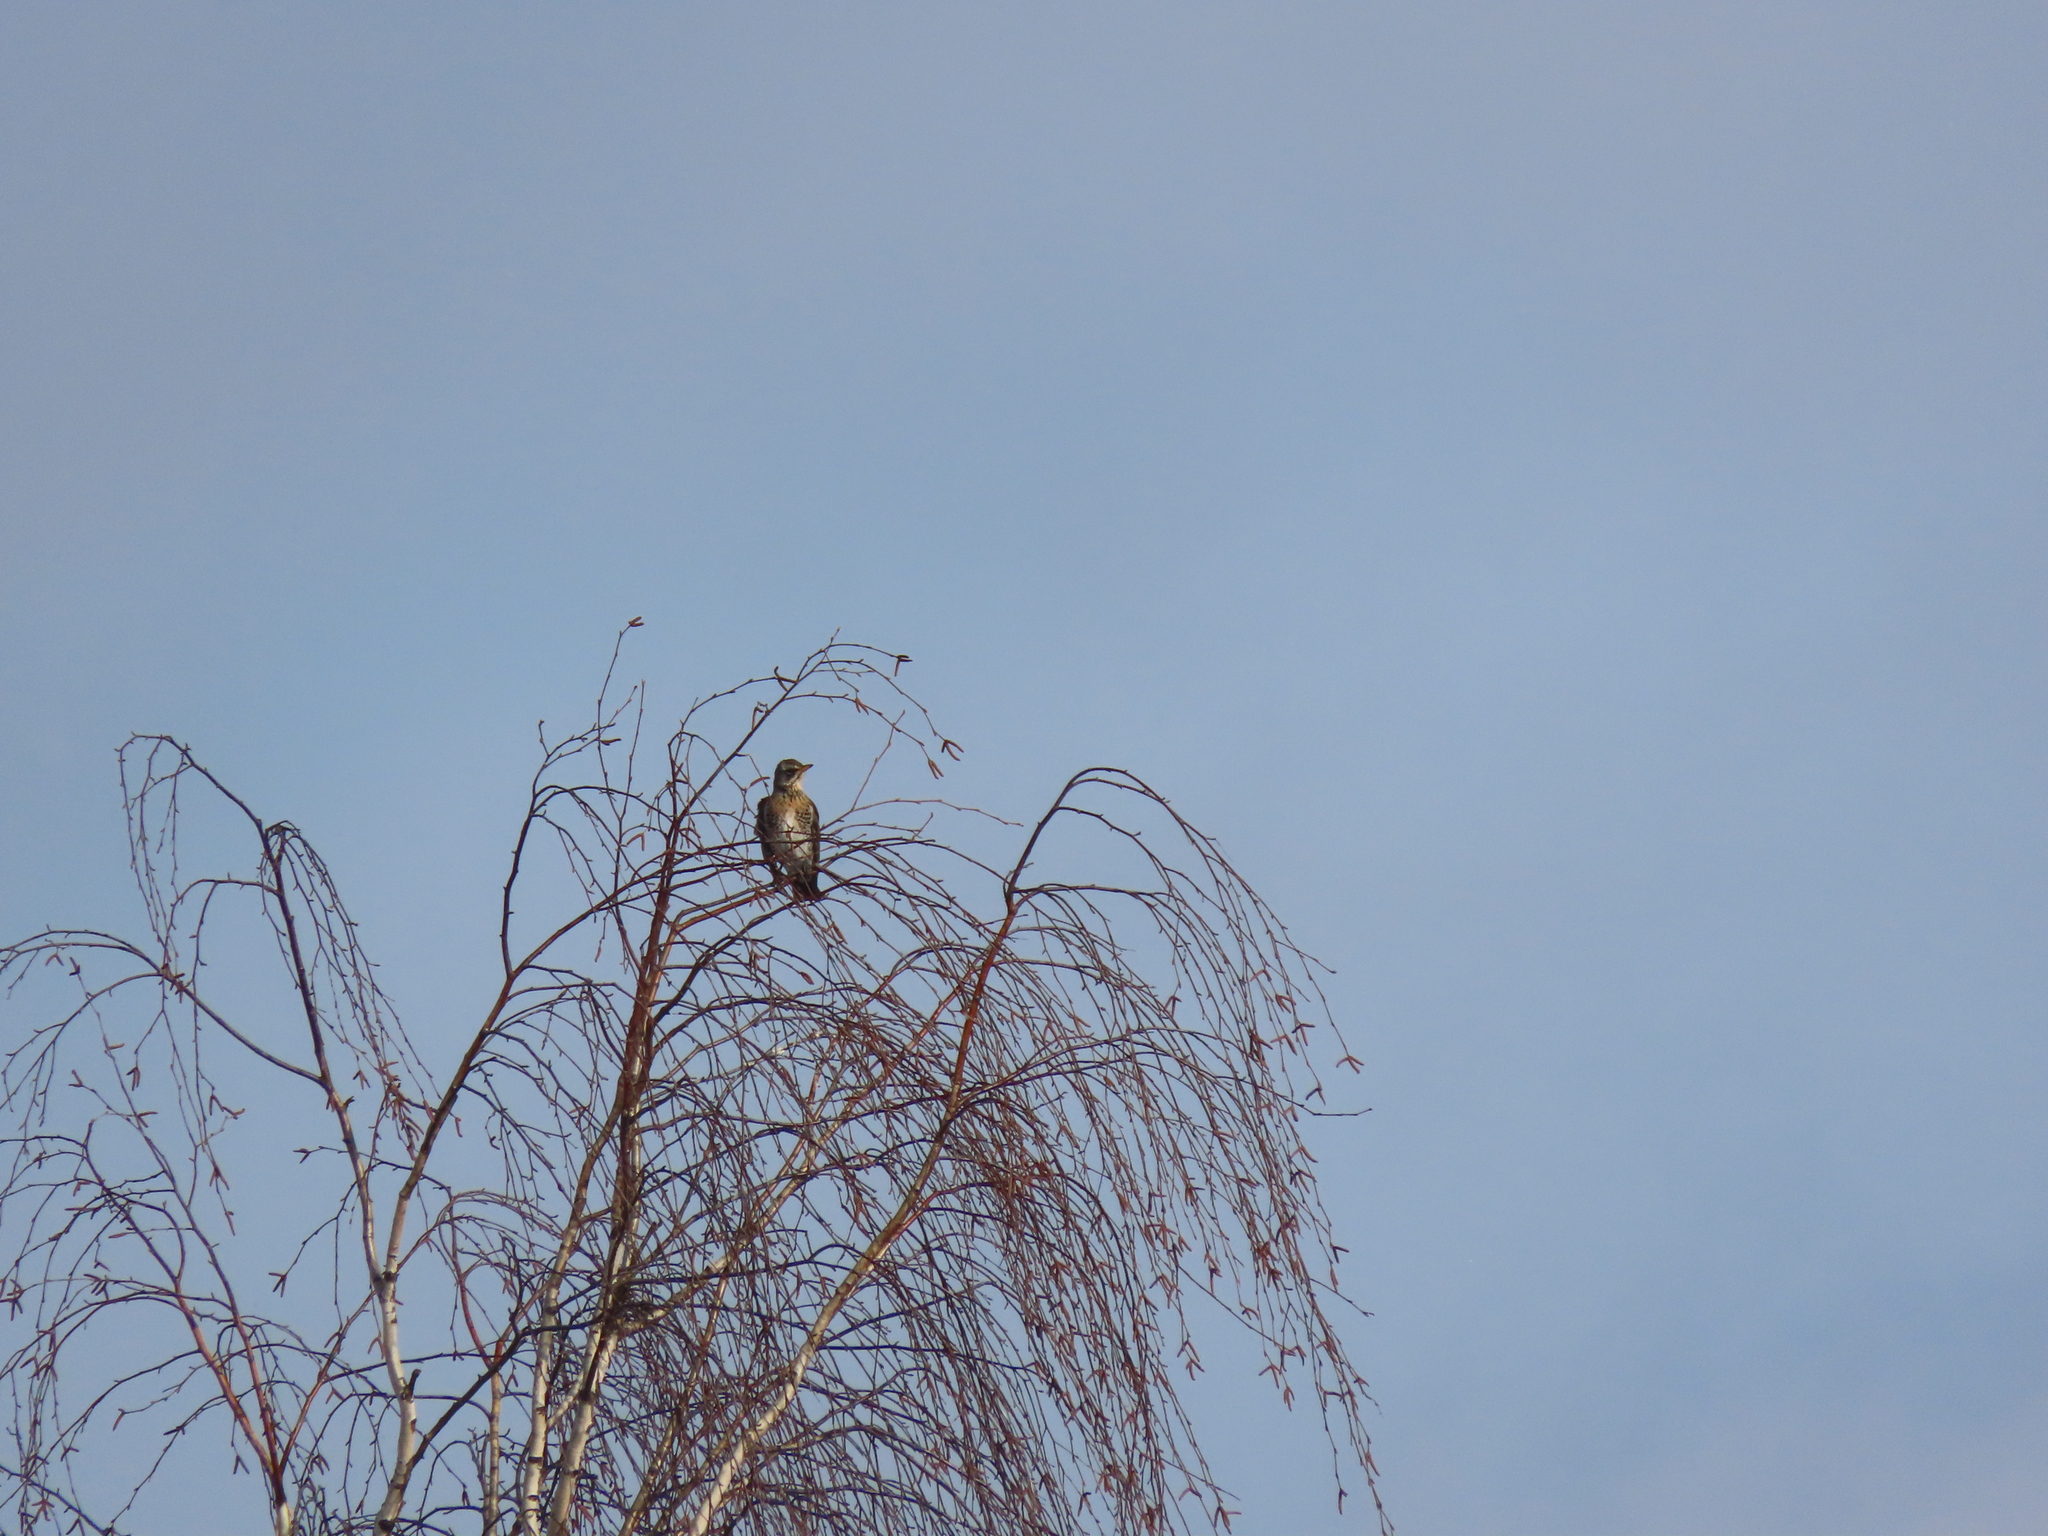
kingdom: Animalia
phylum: Chordata
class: Aves
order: Passeriformes
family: Turdidae
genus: Turdus
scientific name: Turdus pilaris
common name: Fieldfare
